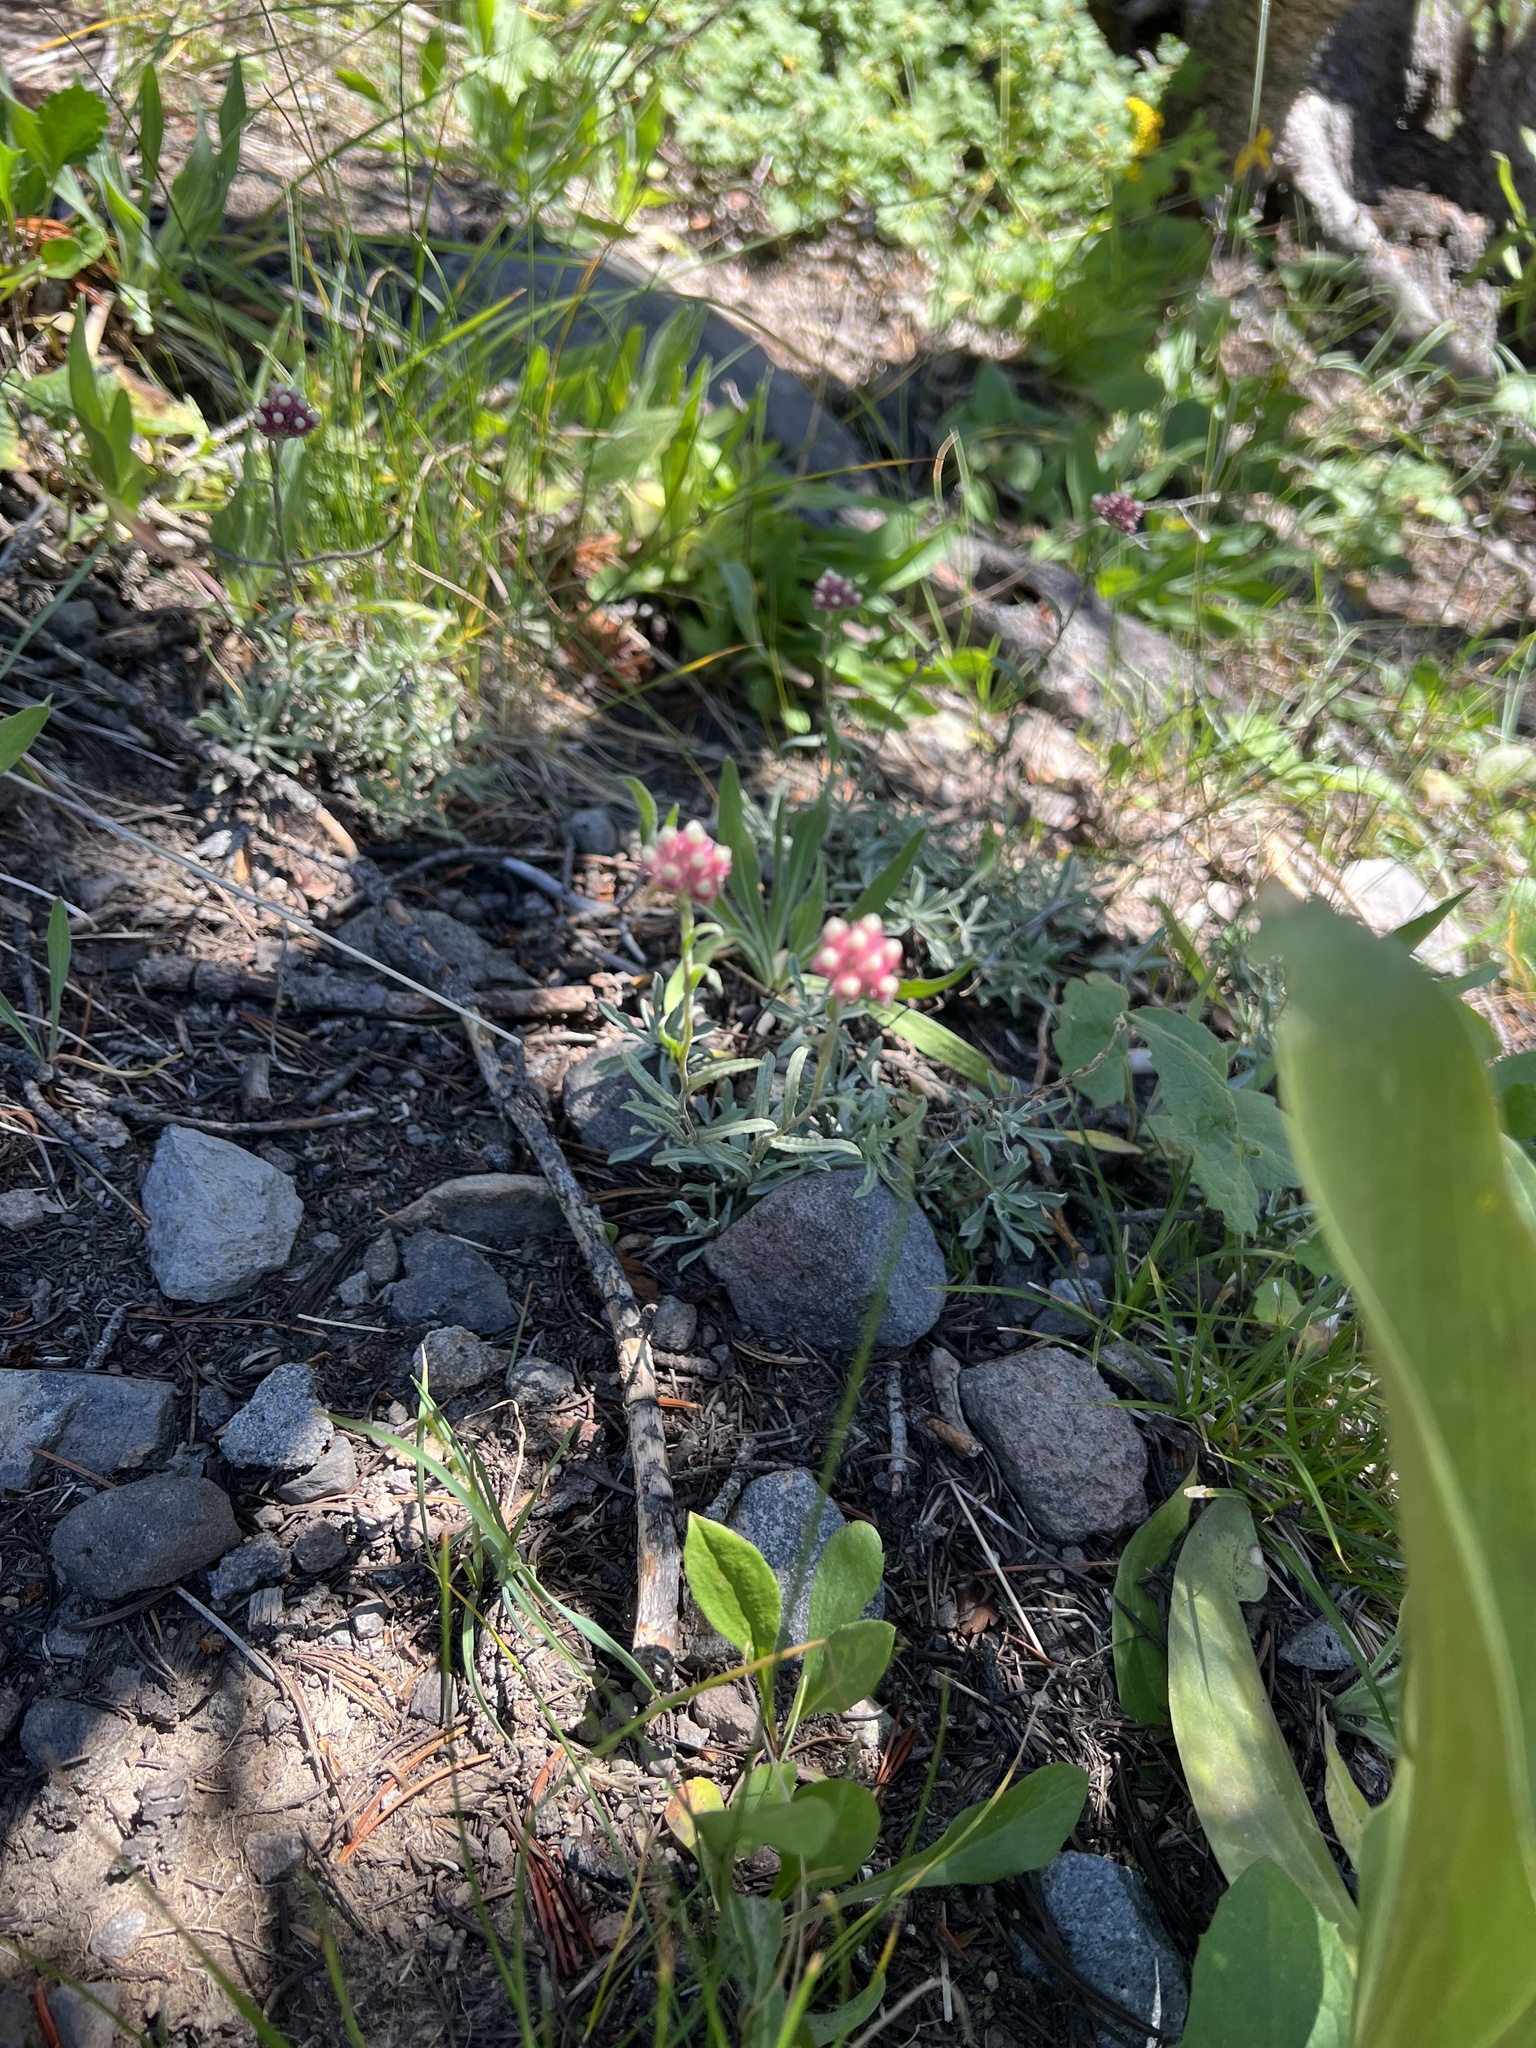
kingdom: Plantae
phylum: Tracheophyta
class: Magnoliopsida
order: Asterales
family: Asteraceae
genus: Antennaria
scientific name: Antennaria rosea
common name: Rosy pussytoes
